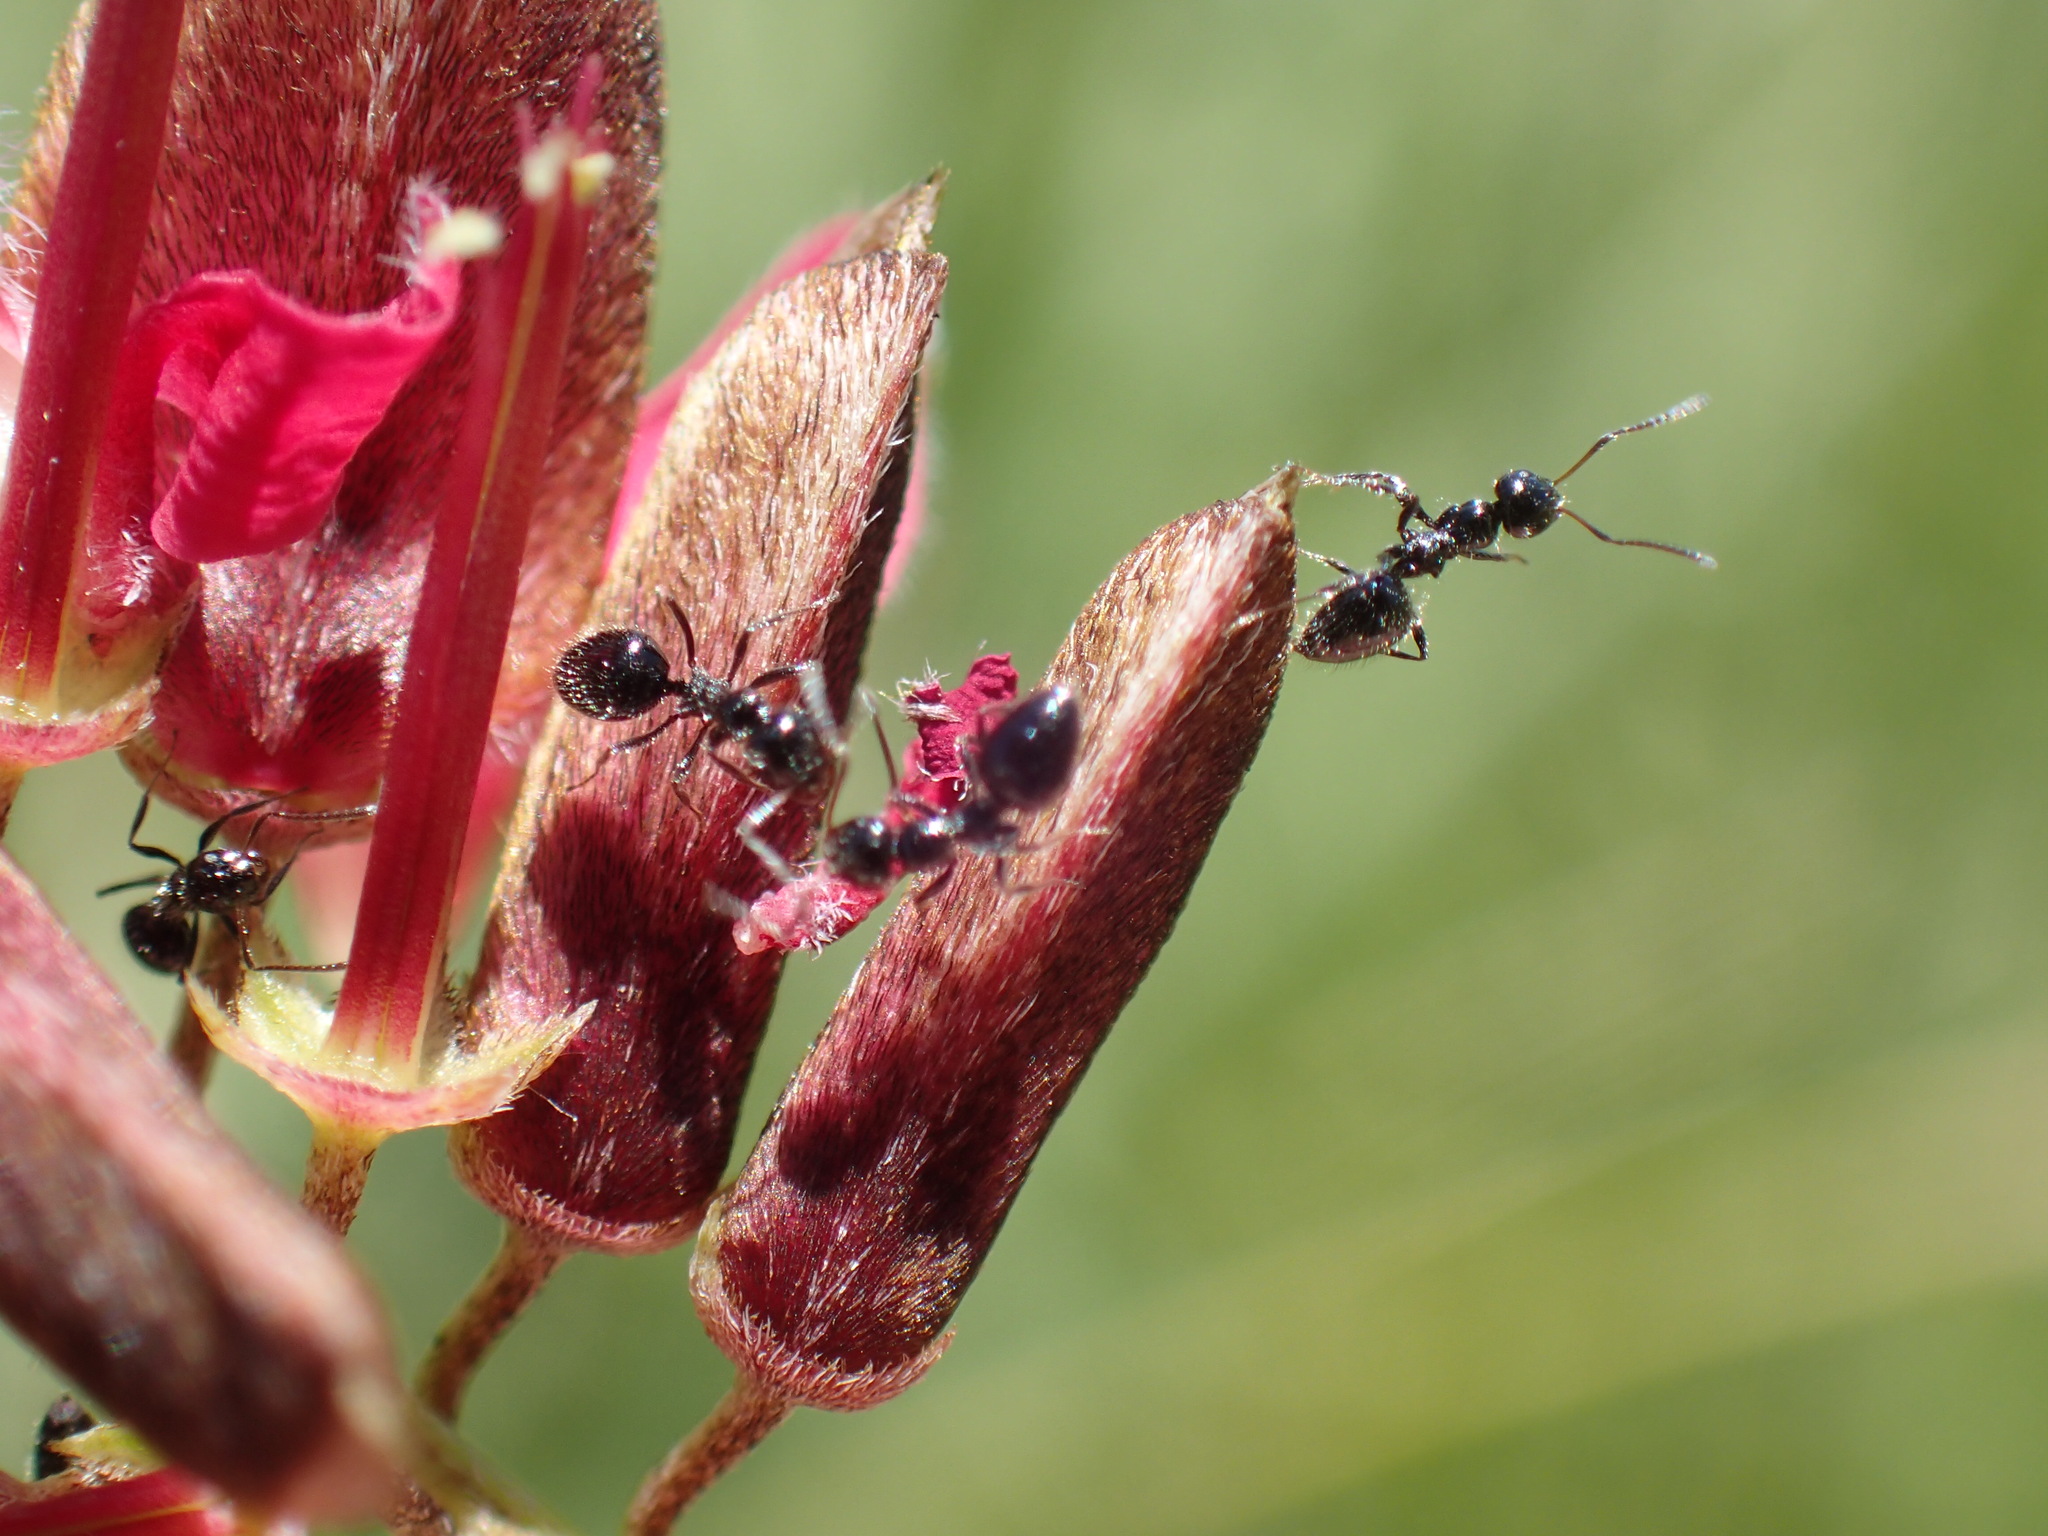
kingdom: Animalia
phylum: Arthropoda
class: Insecta
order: Hymenoptera
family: Formicidae
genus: Lepisiota
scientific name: Lepisiota capensis
